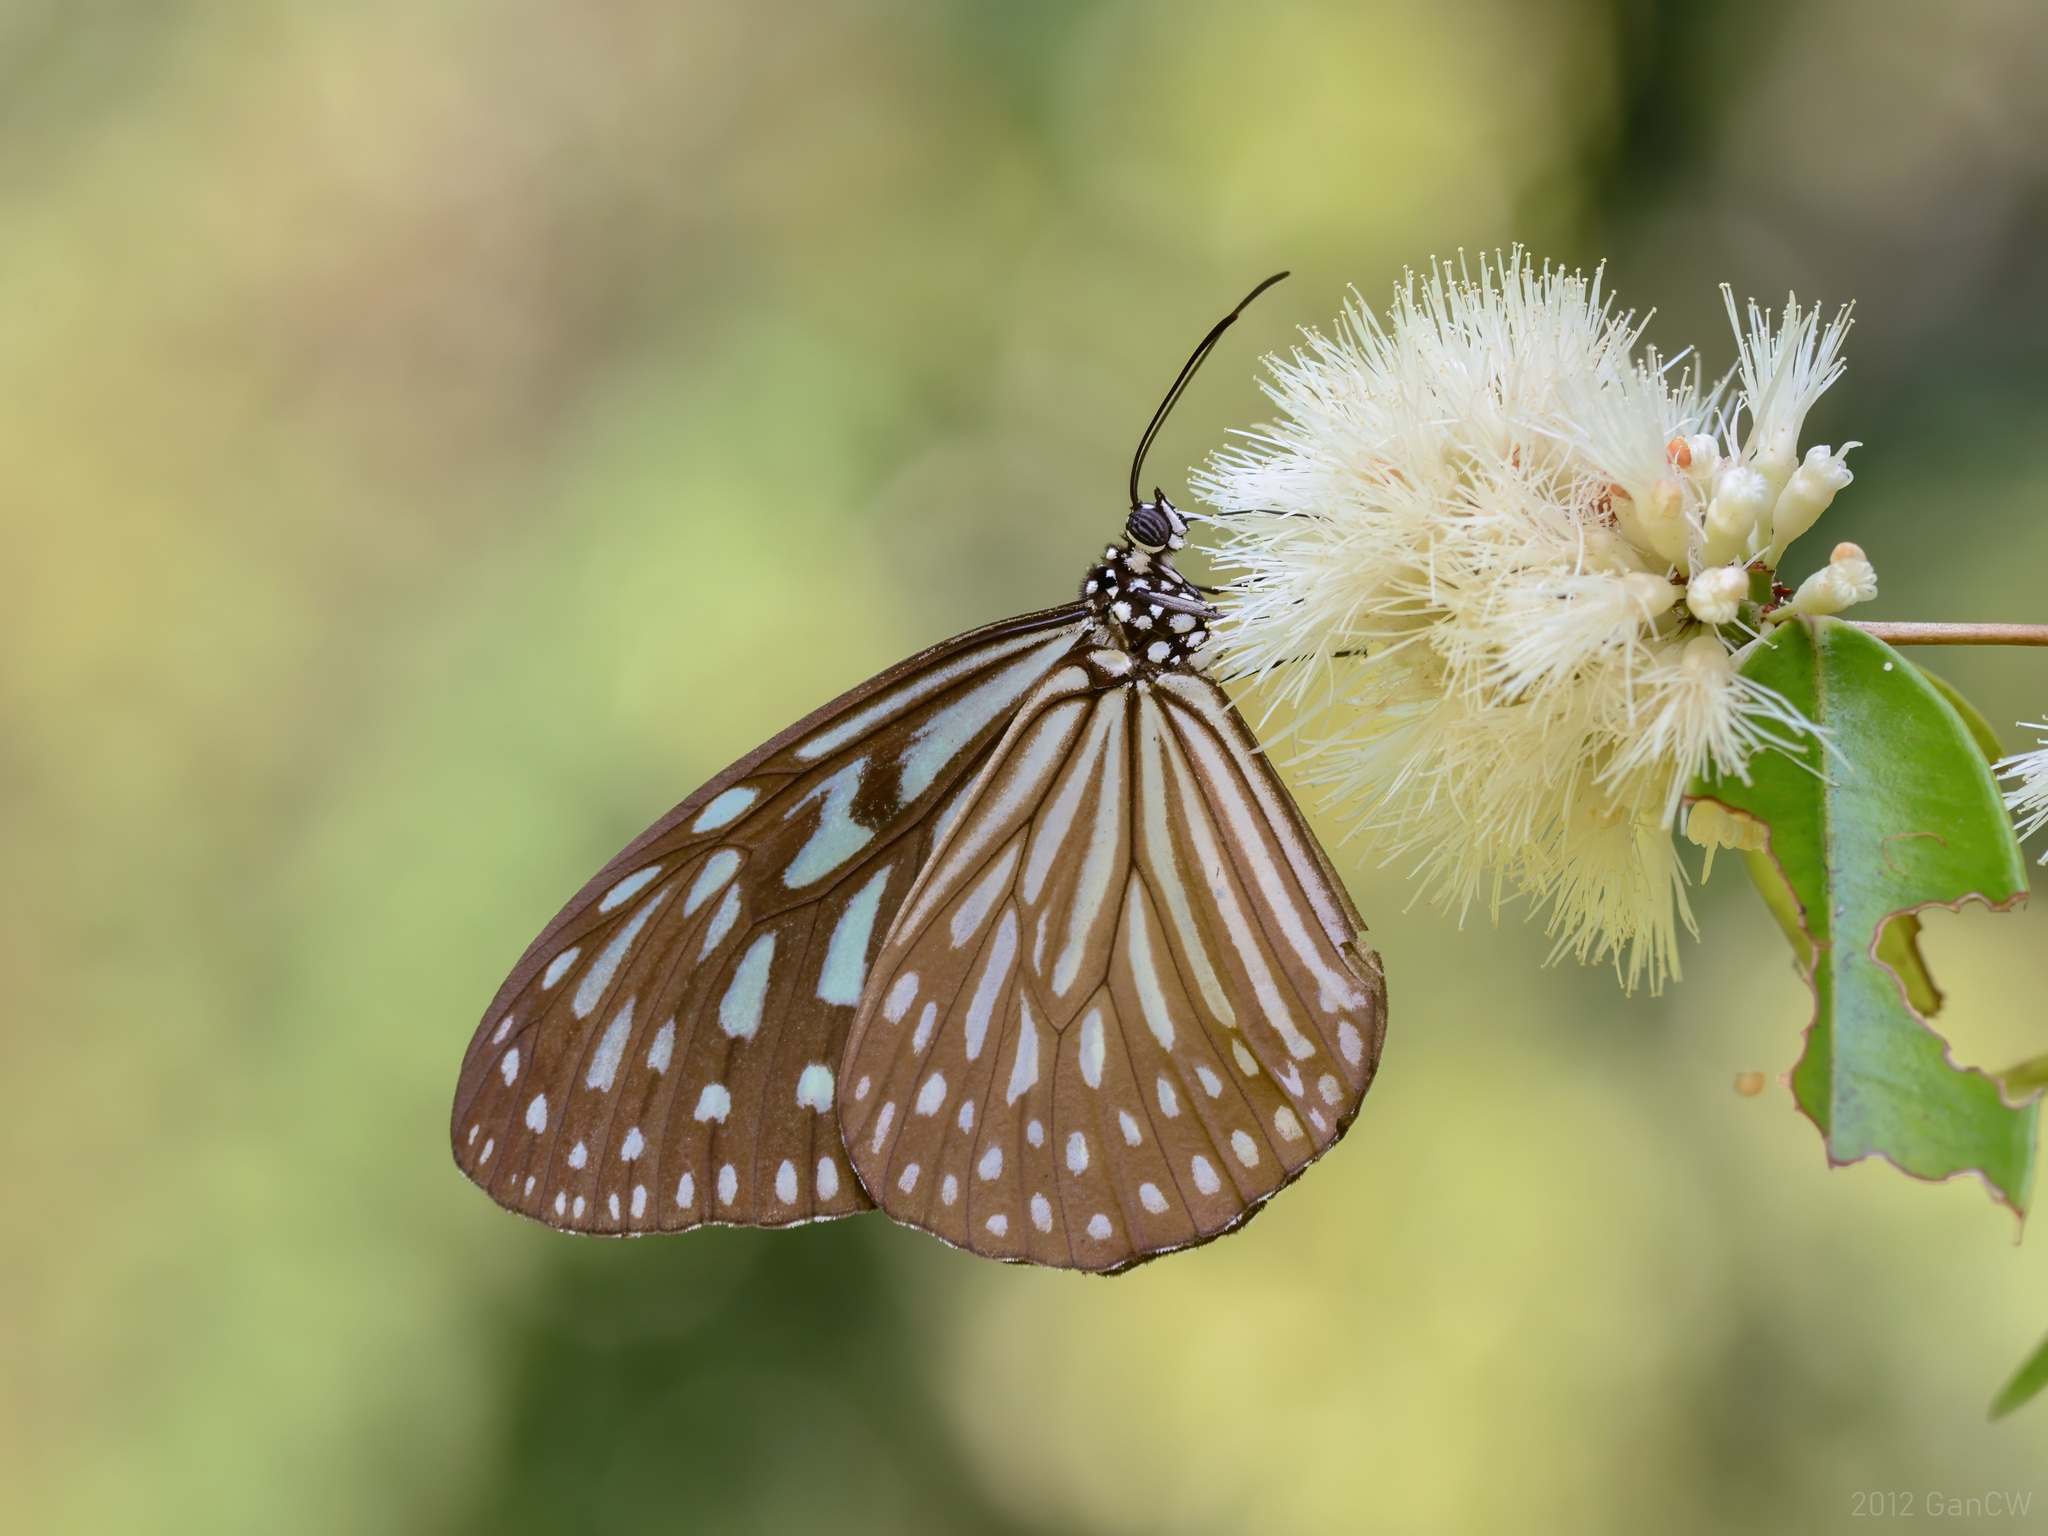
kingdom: Animalia
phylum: Arthropoda
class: Insecta
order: Lepidoptera
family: Nymphalidae
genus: Ideopsis
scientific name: Ideopsis vulgaris
